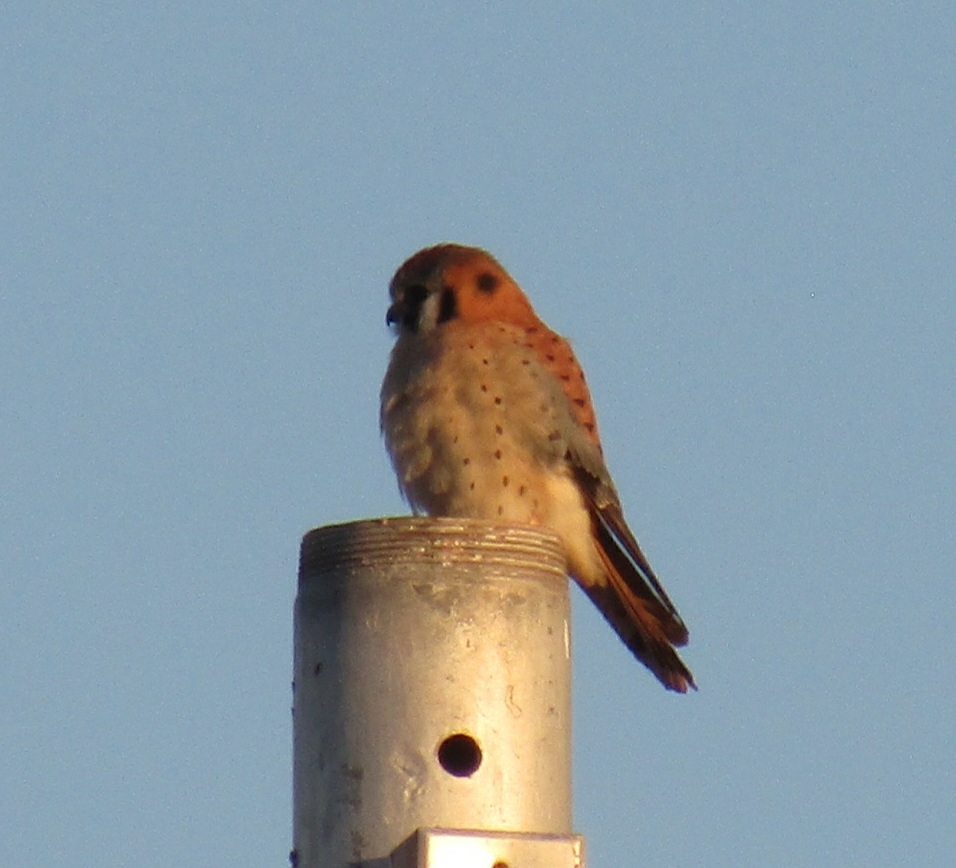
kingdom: Animalia
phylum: Chordata
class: Aves
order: Falconiformes
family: Falconidae
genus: Falco
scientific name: Falco sparverius
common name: American kestrel
